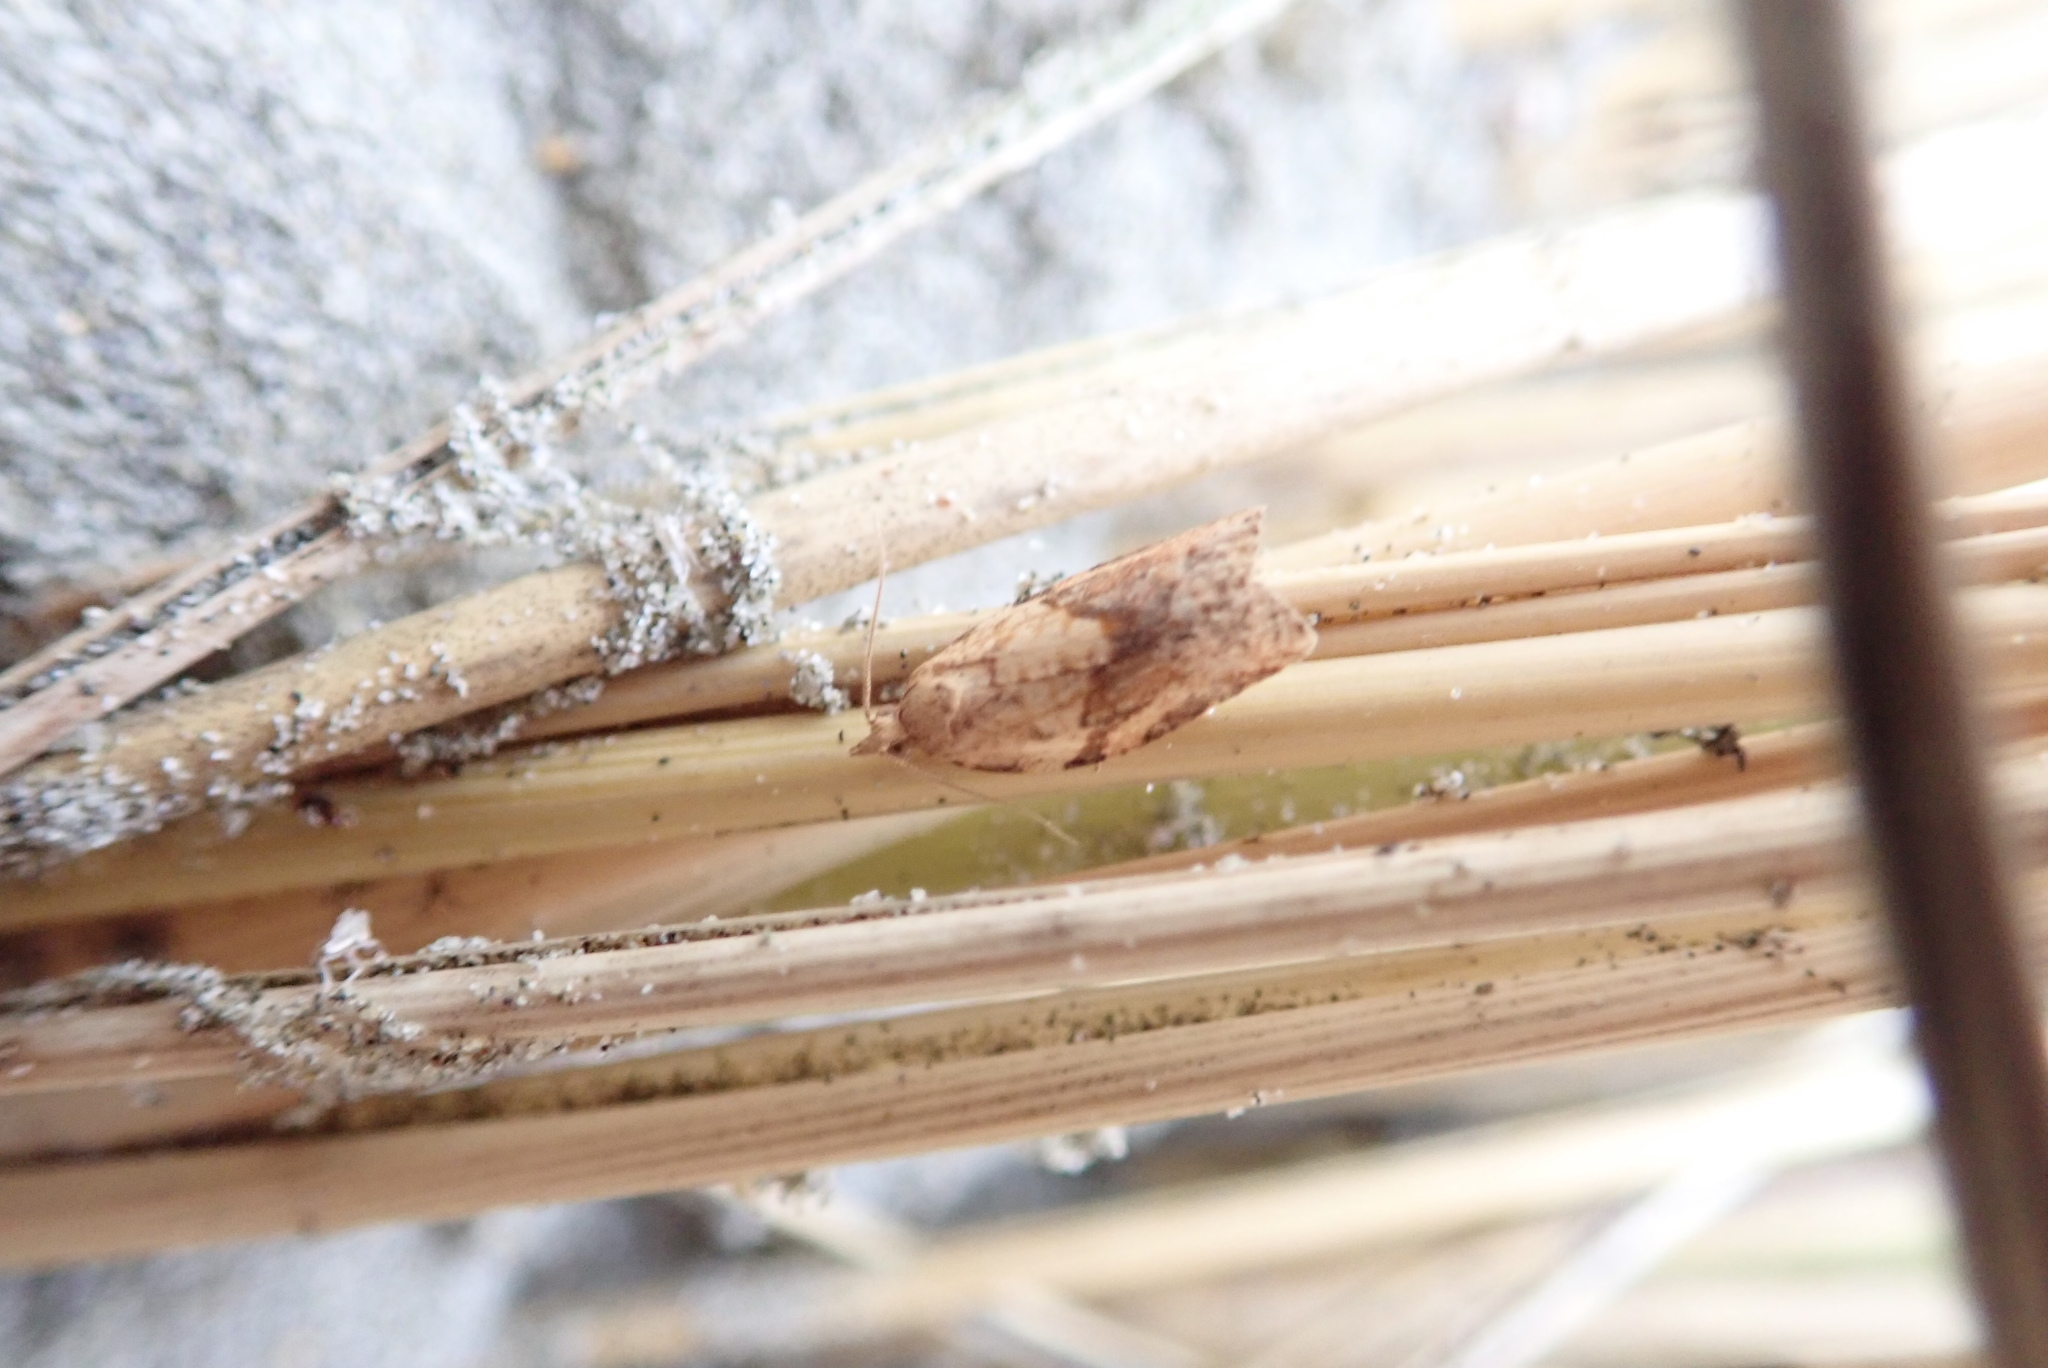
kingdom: Animalia
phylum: Arthropoda
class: Insecta
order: Lepidoptera
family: Tortricidae
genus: Epiphyas
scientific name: Epiphyas postvittana
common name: Light brown apple moth
